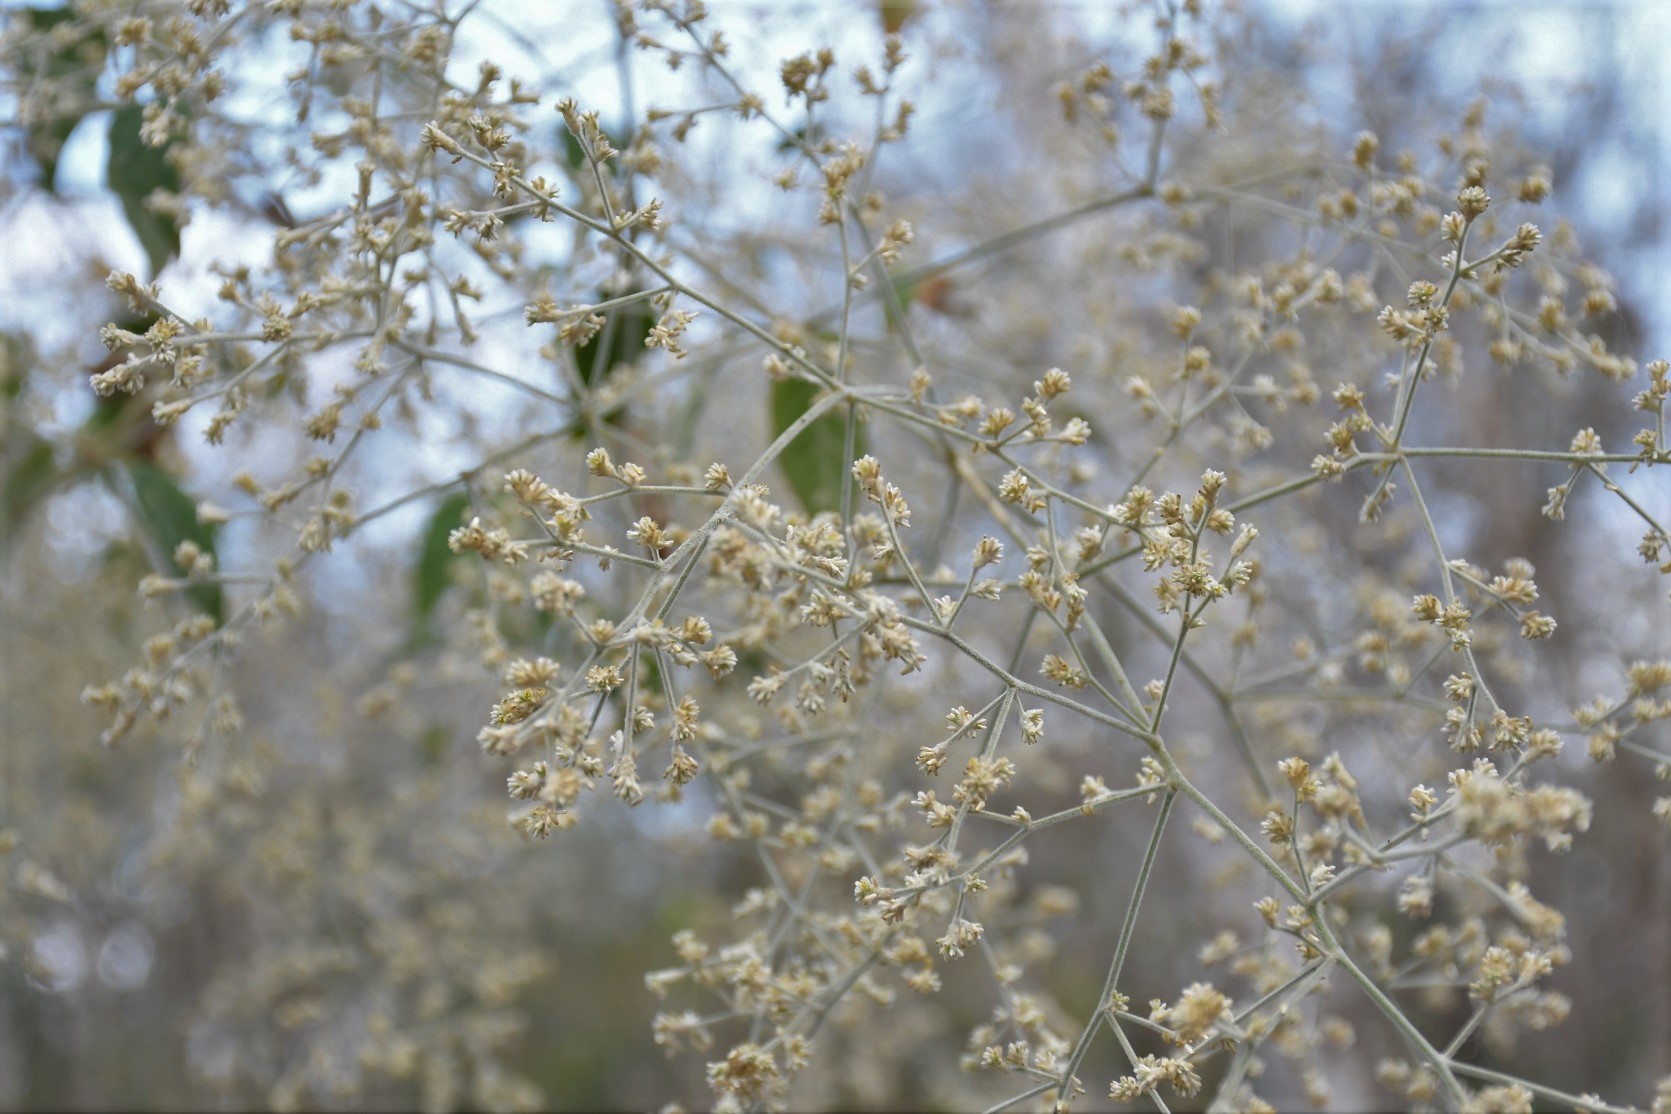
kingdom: Plantae
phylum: Tracheophyta
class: Magnoliopsida
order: Caryophyllales
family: Amaranthaceae
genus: Iresine
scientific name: Iresine latifolia
